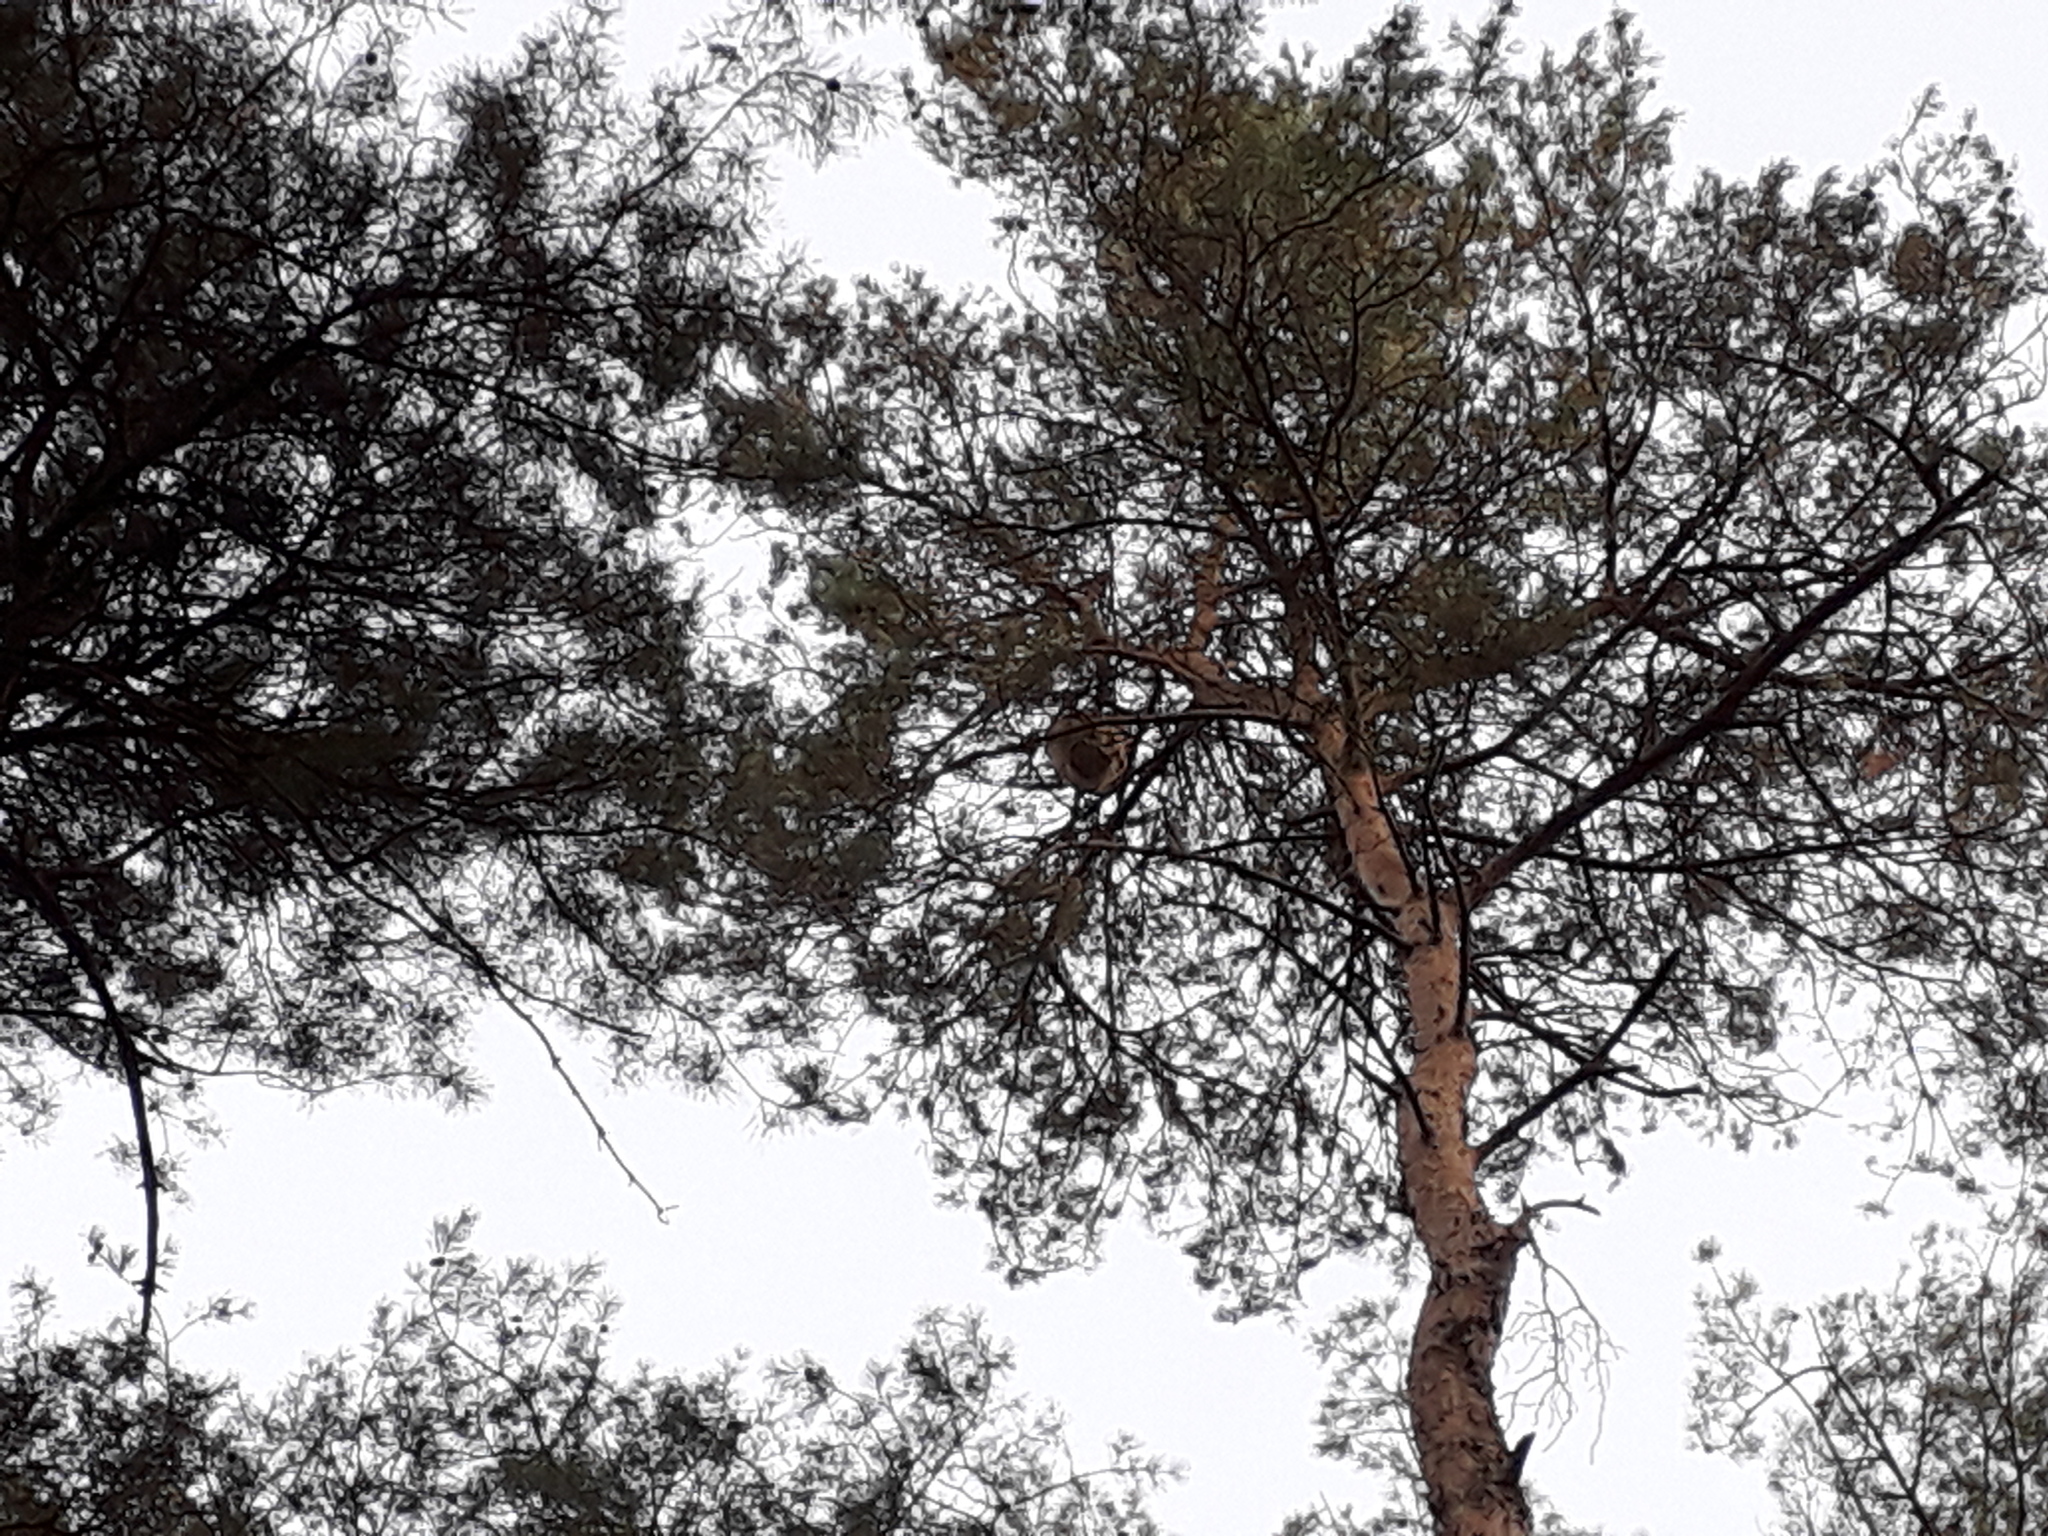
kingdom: Animalia
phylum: Arthropoda
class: Insecta
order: Hymenoptera
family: Vespidae
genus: Vespa
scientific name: Vespa velutina
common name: Asian hornet
